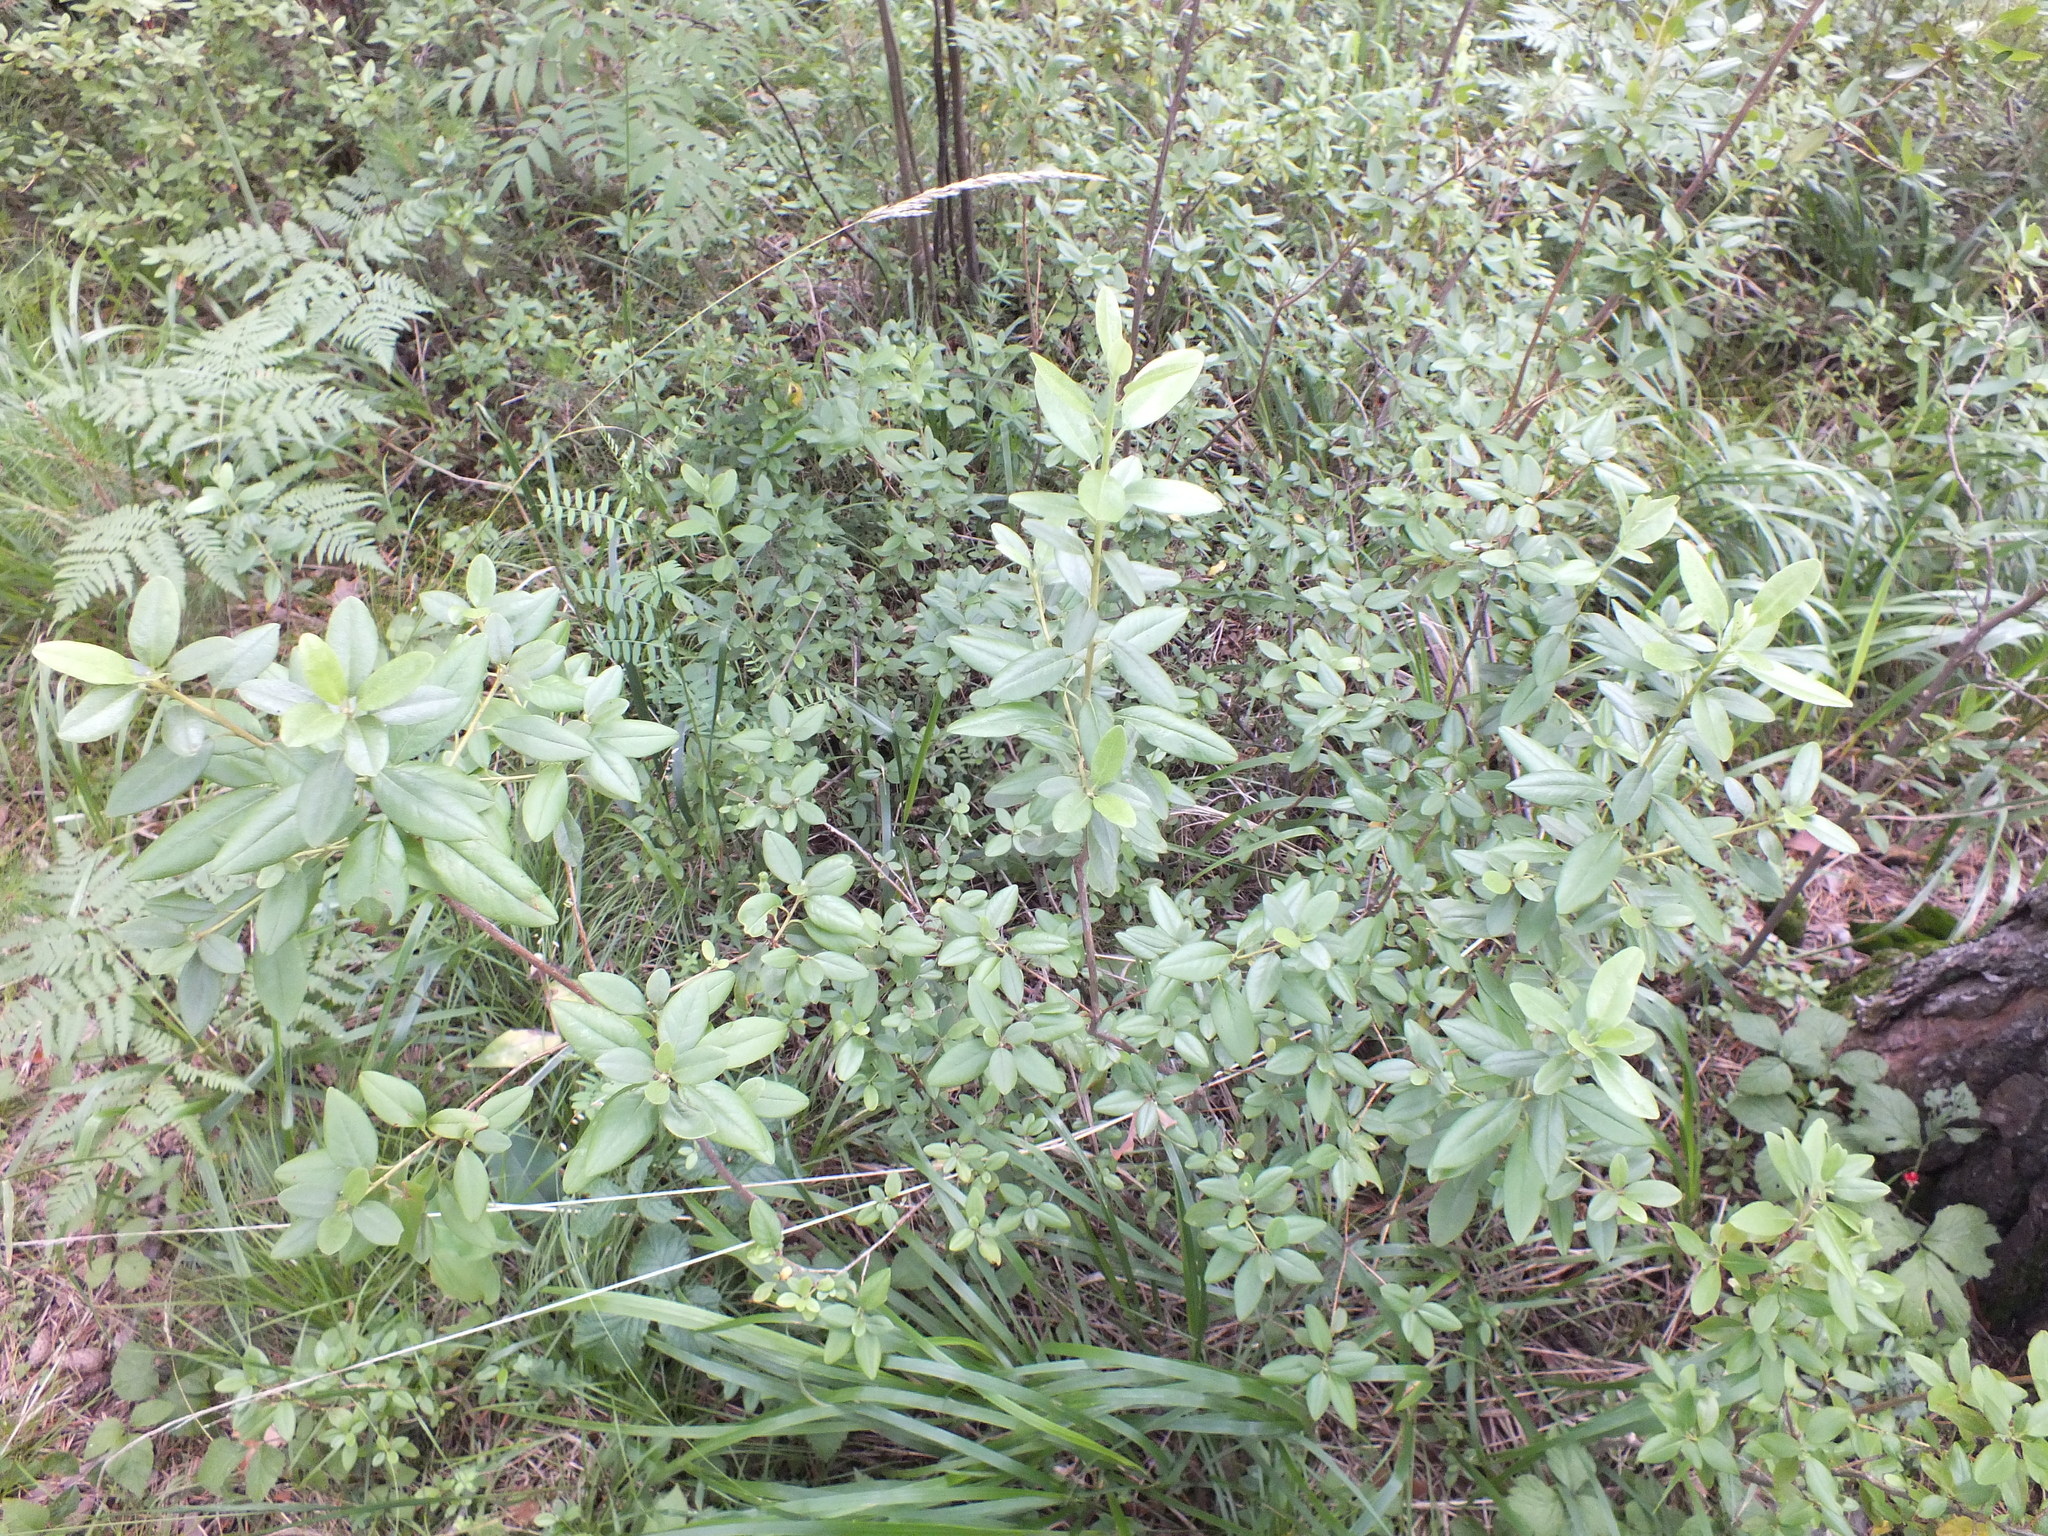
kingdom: Plantae
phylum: Tracheophyta
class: Magnoliopsida
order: Ericales
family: Ericaceae
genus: Rhododendron
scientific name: Rhododendron dauricum
